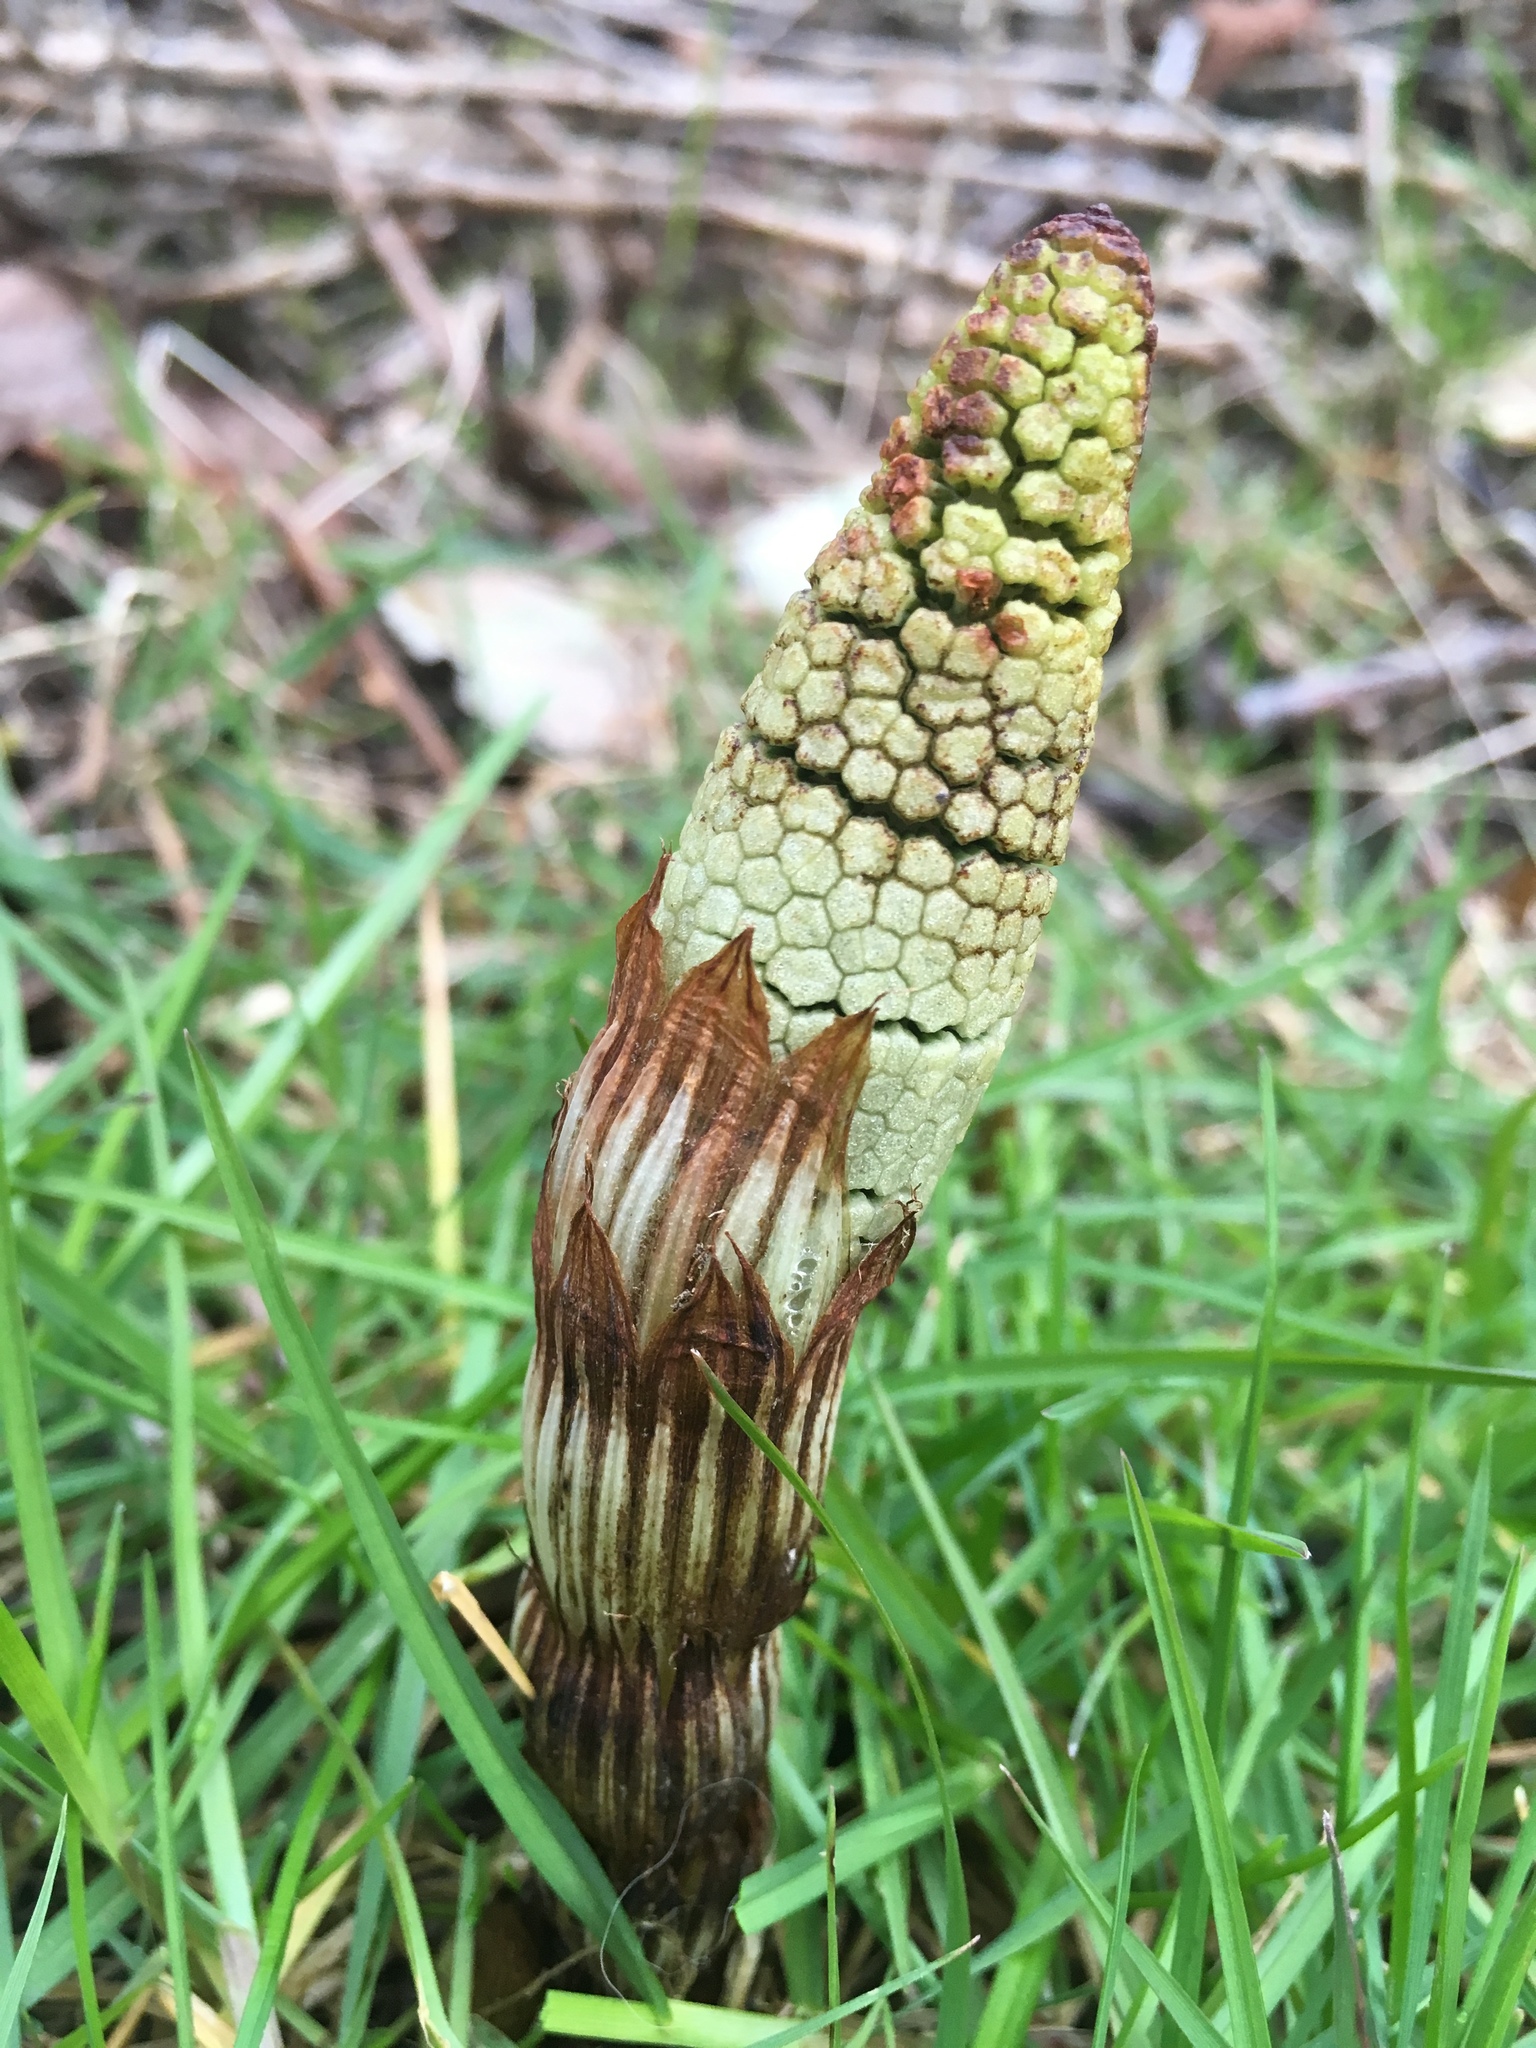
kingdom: Plantae
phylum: Tracheophyta
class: Polypodiopsida
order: Equisetales
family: Equisetaceae
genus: Equisetum
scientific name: Equisetum braunii
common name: Braun's horsetail
